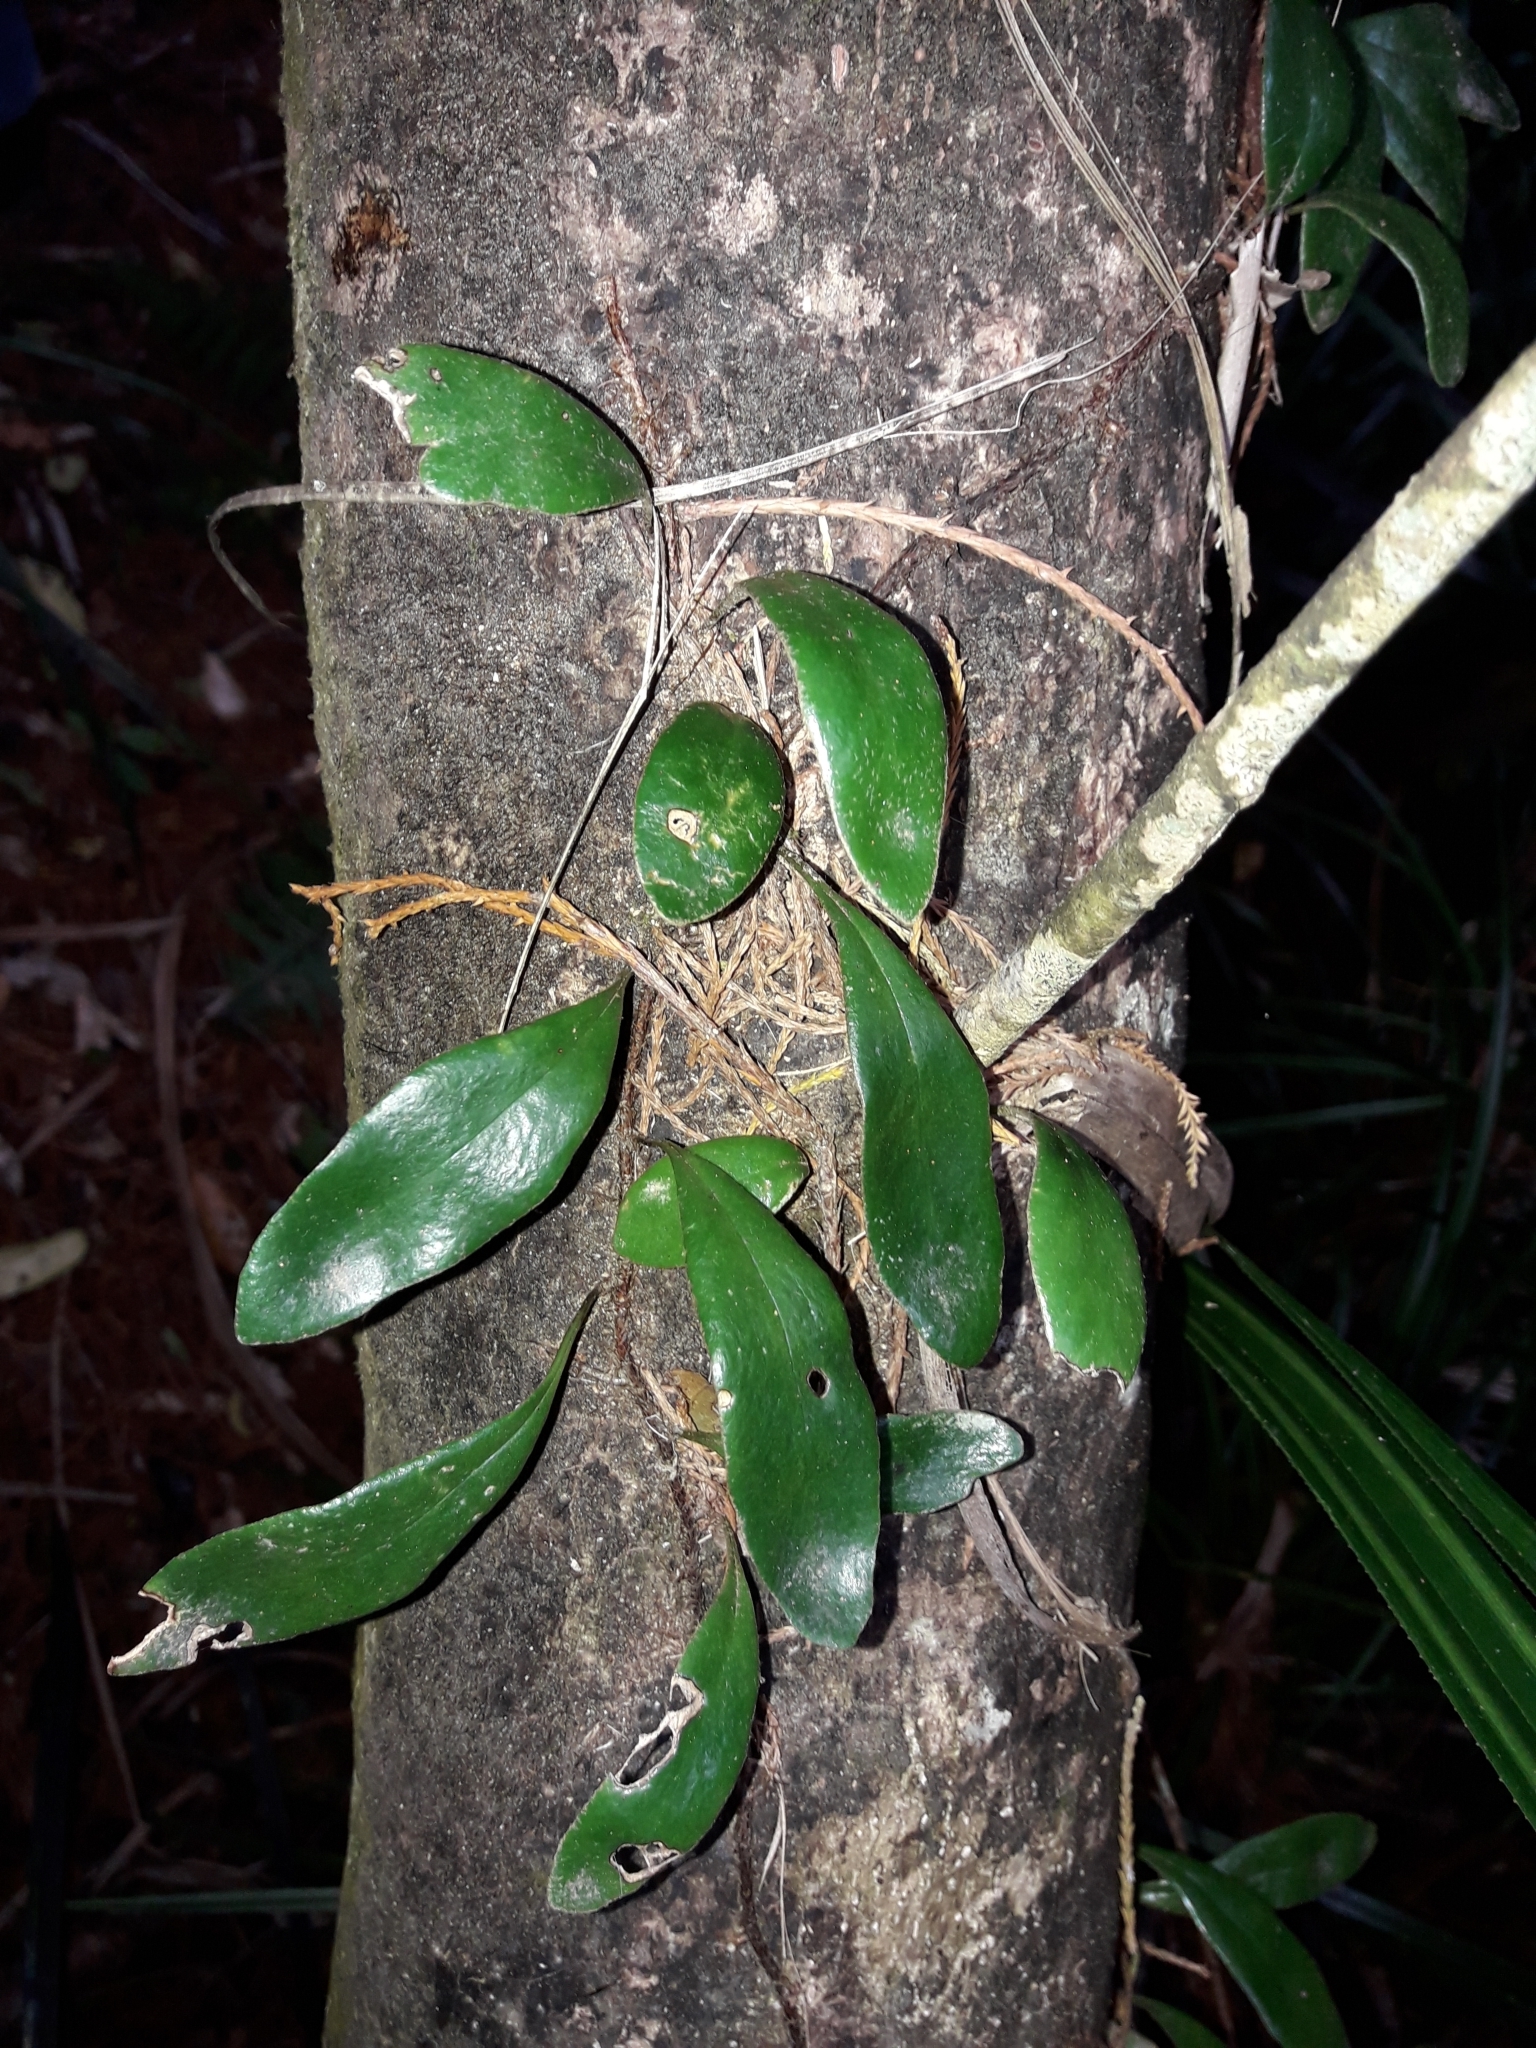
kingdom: Plantae
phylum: Tracheophyta
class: Polypodiopsida
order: Polypodiales
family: Polypodiaceae
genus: Pyrrosia
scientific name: Pyrrosia eleagnifolia
